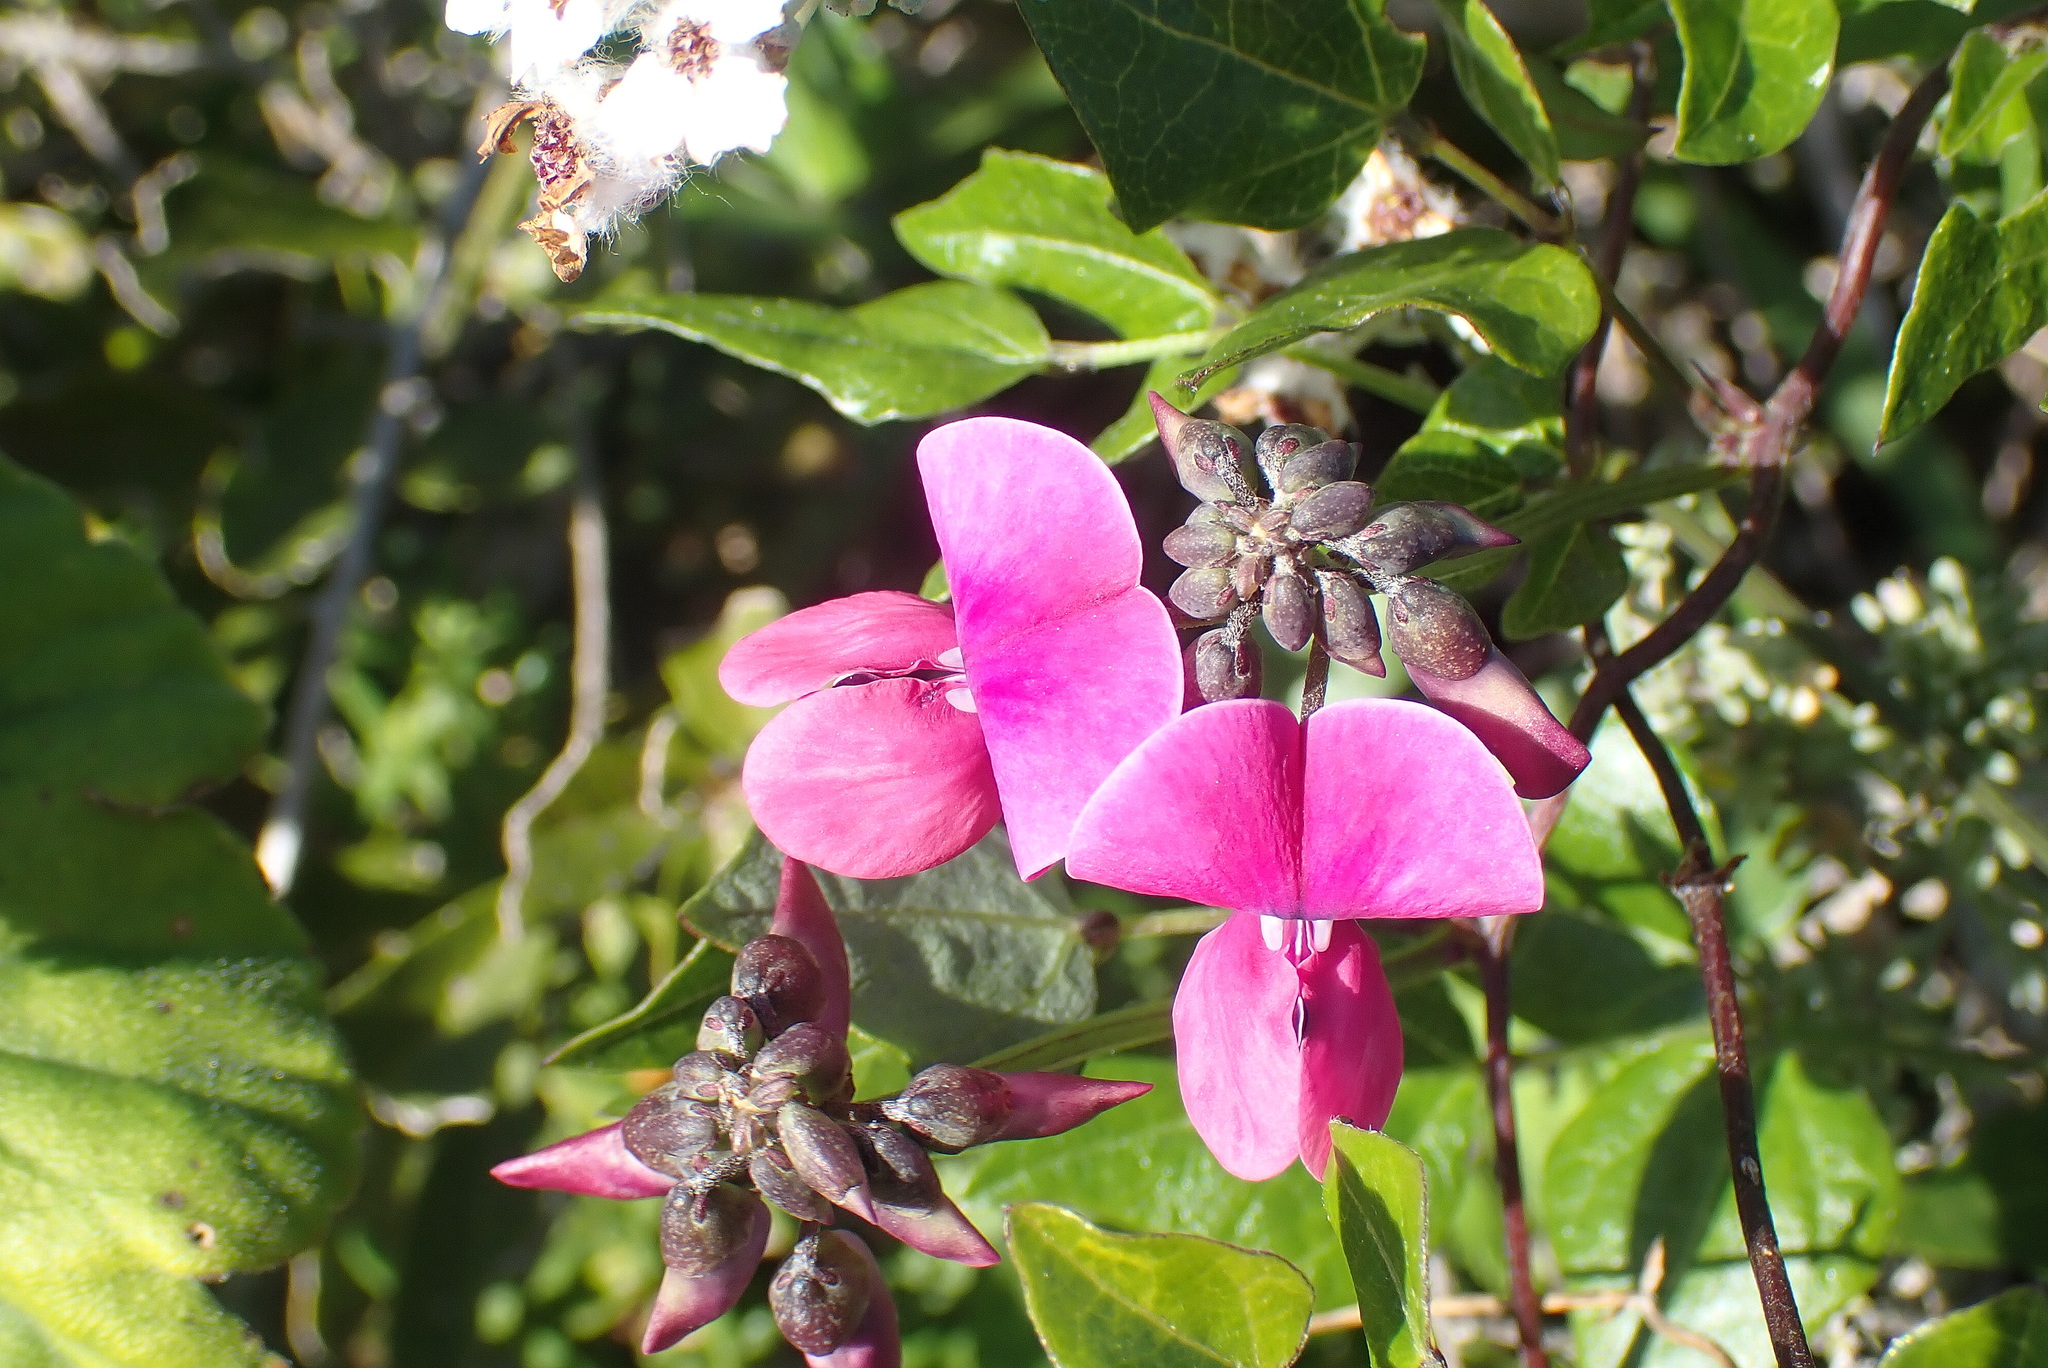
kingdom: Plantae
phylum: Tracheophyta
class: Magnoliopsida
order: Fabales
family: Fabaceae
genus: Dipogon
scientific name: Dipogon lignosus
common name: Okie bean
